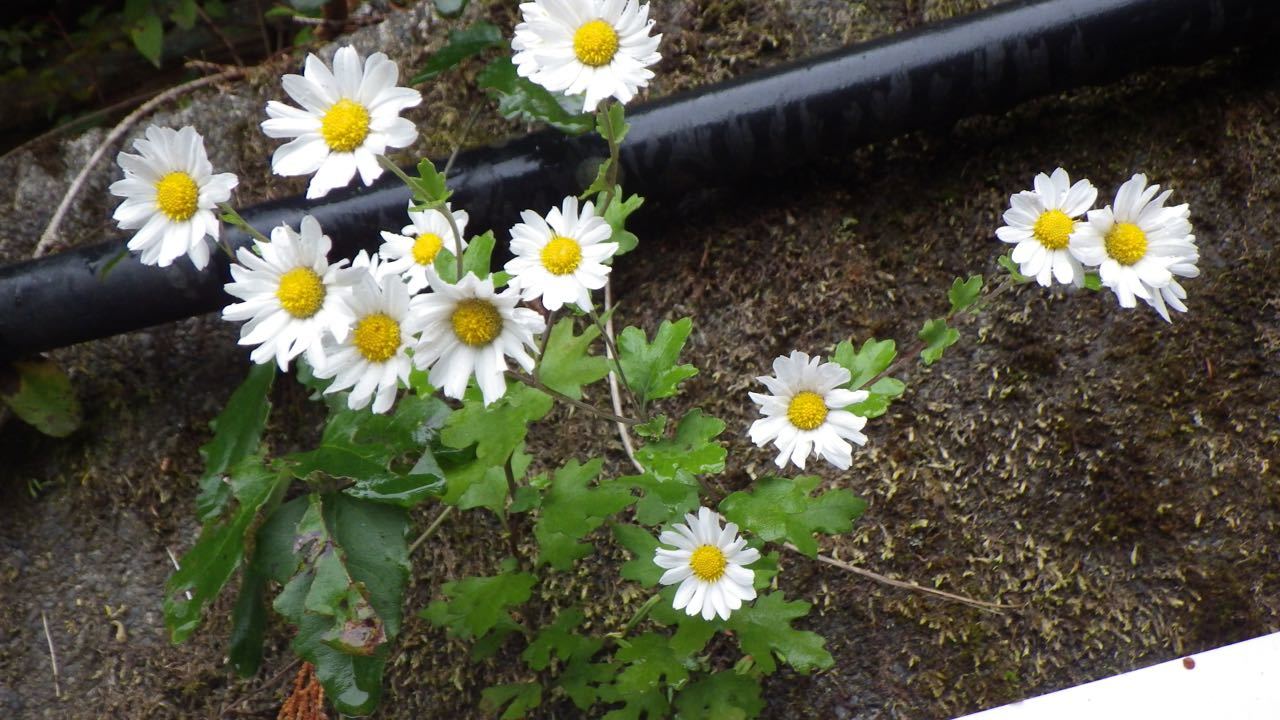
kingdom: Plantae
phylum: Tracheophyta
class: Magnoliopsida
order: Asterales
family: Asteraceae
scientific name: Asteraceae
